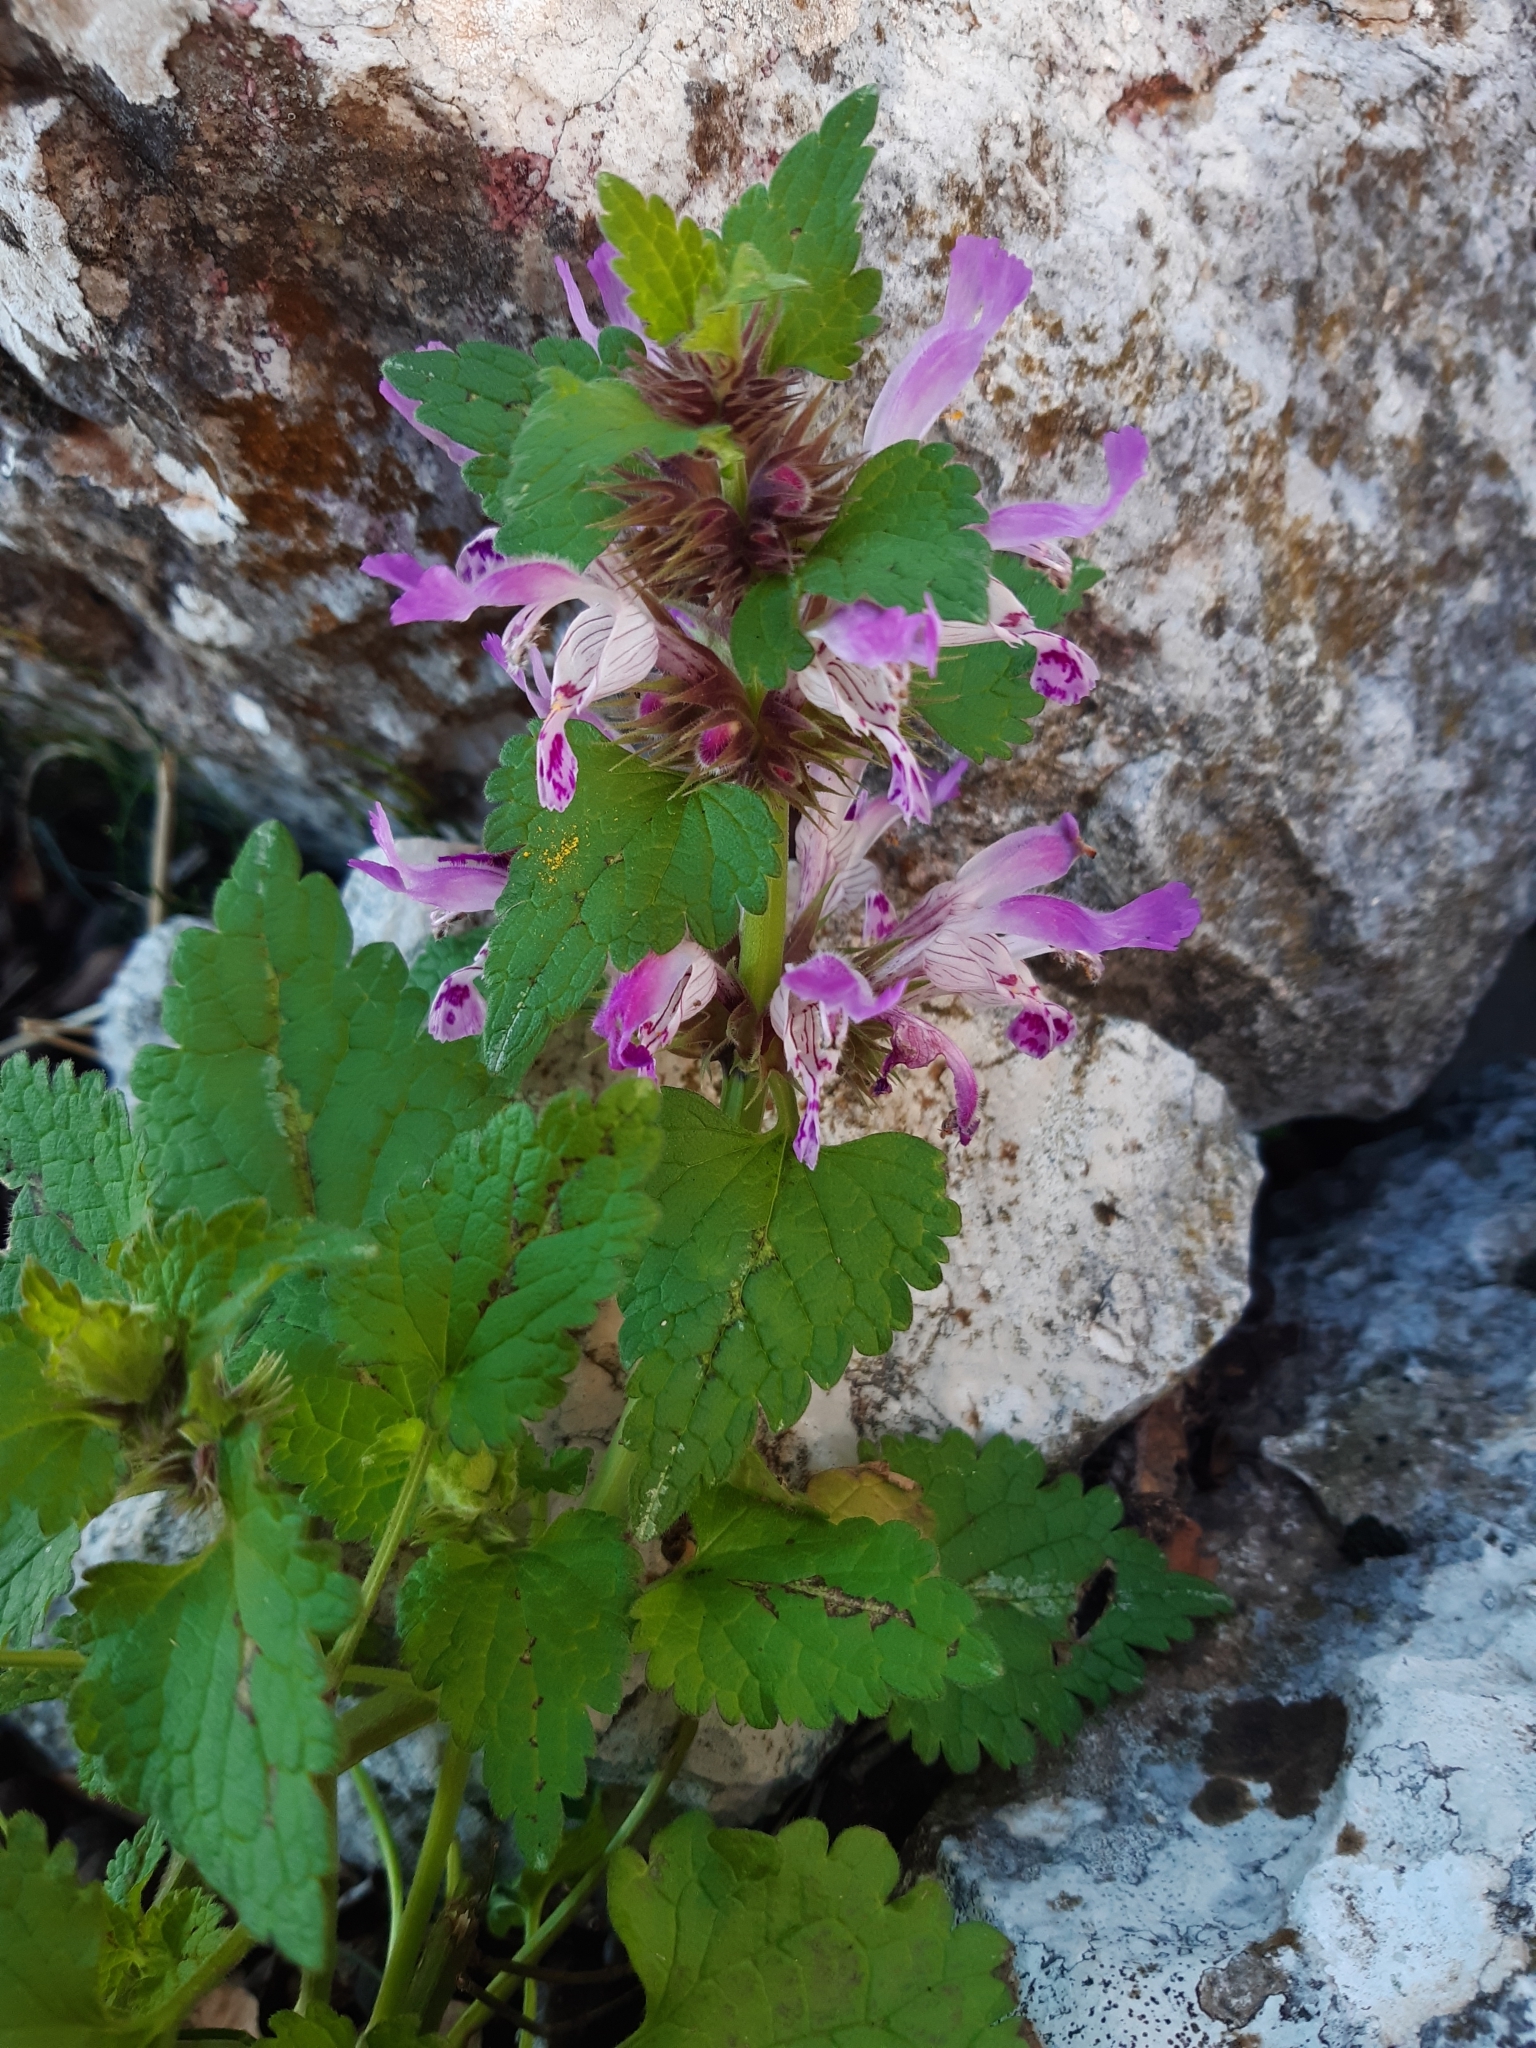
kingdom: Plantae
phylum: Tracheophyta
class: Magnoliopsida
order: Lamiales
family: Lamiaceae
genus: Lamium
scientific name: Lamium garganicum
